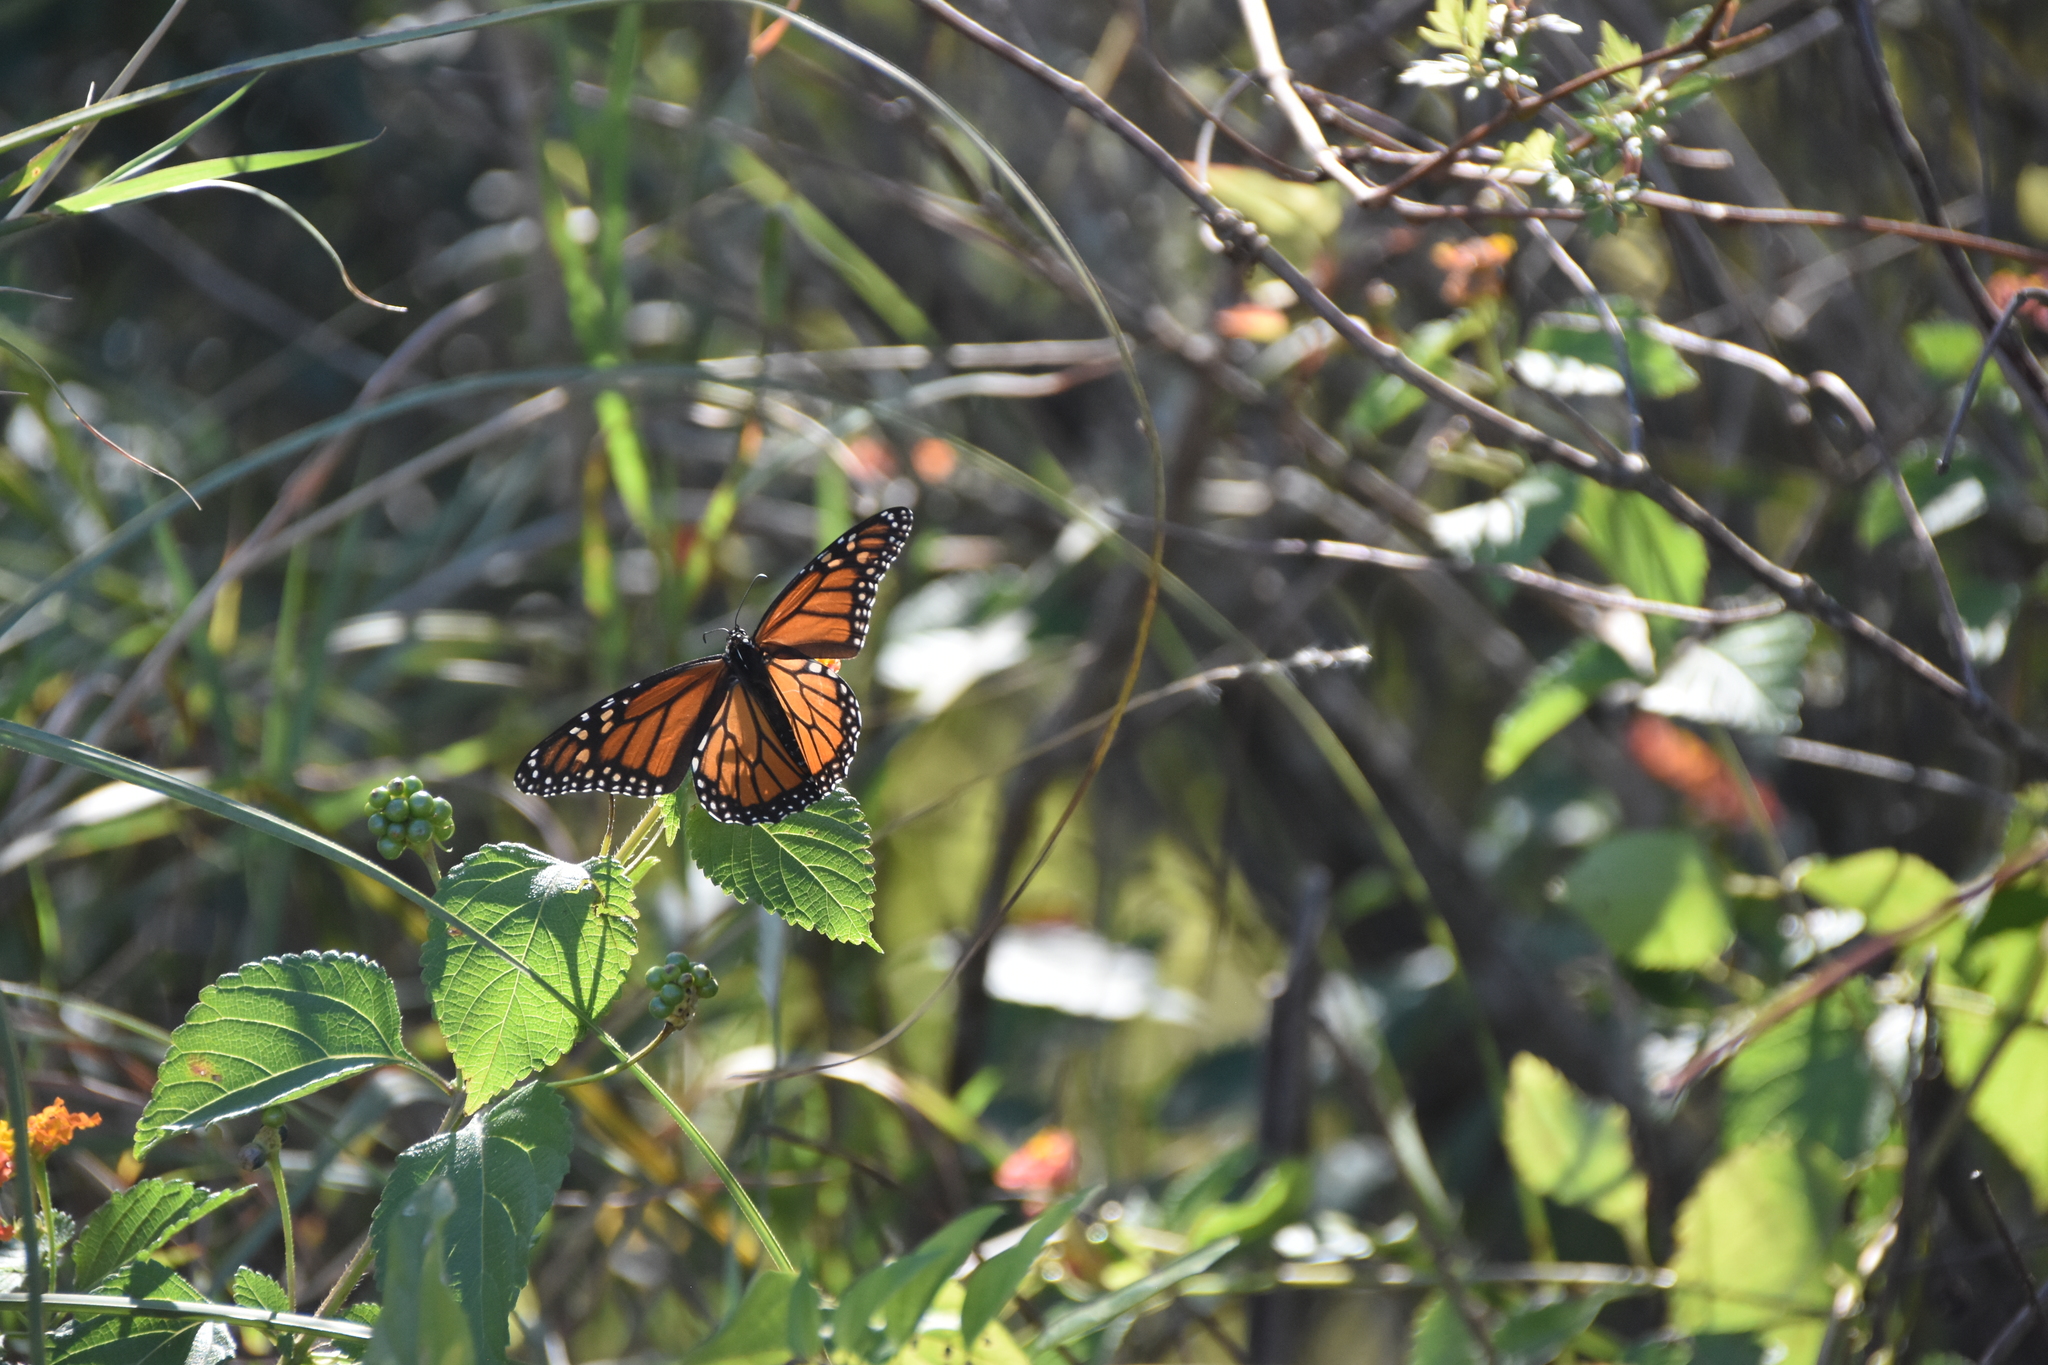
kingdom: Animalia
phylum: Arthropoda
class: Insecta
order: Lepidoptera
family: Nymphalidae
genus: Danaus
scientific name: Danaus plexippus
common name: Monarch
